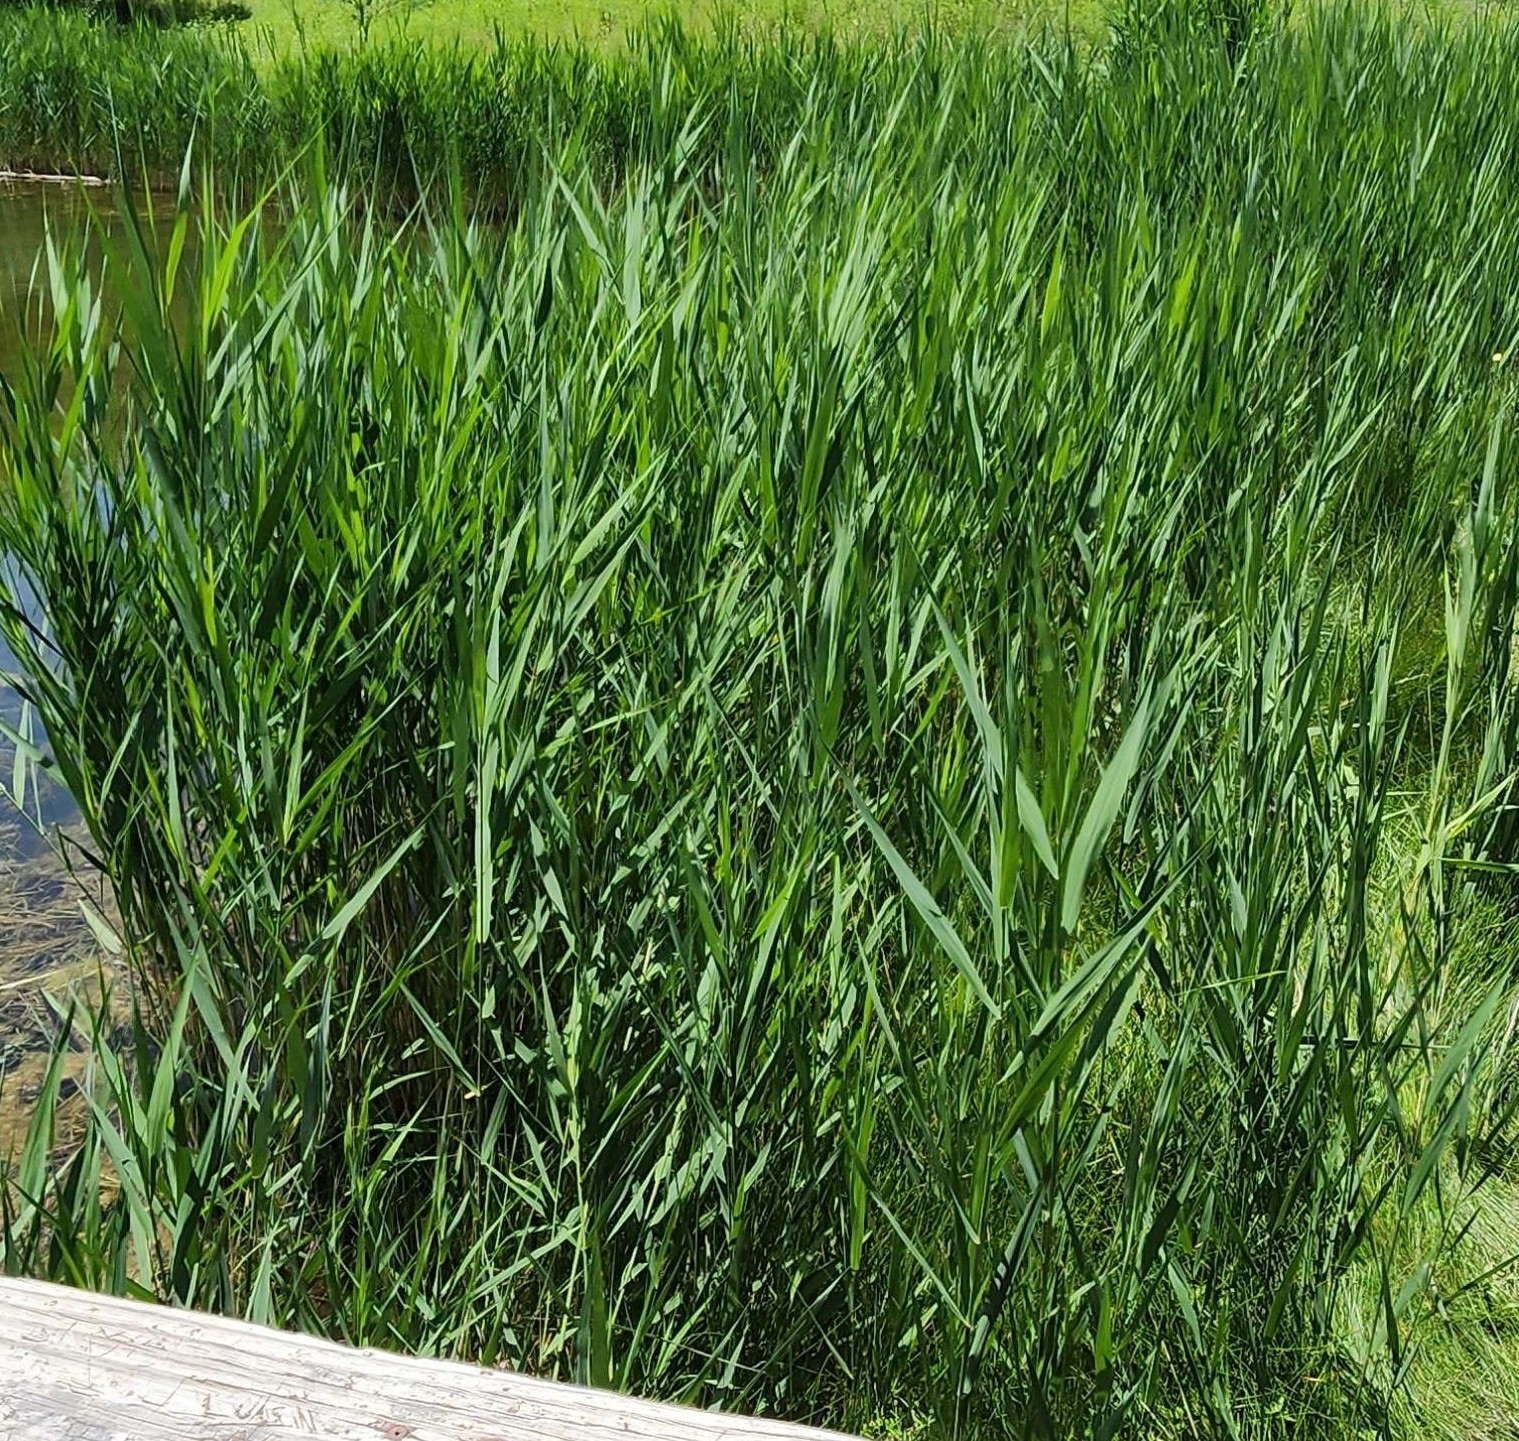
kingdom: Plantae
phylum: Tracheophyta
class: Liliopsida
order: Poales
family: Poaceae
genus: Phragmites
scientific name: Phragmites australis
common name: Common reed
